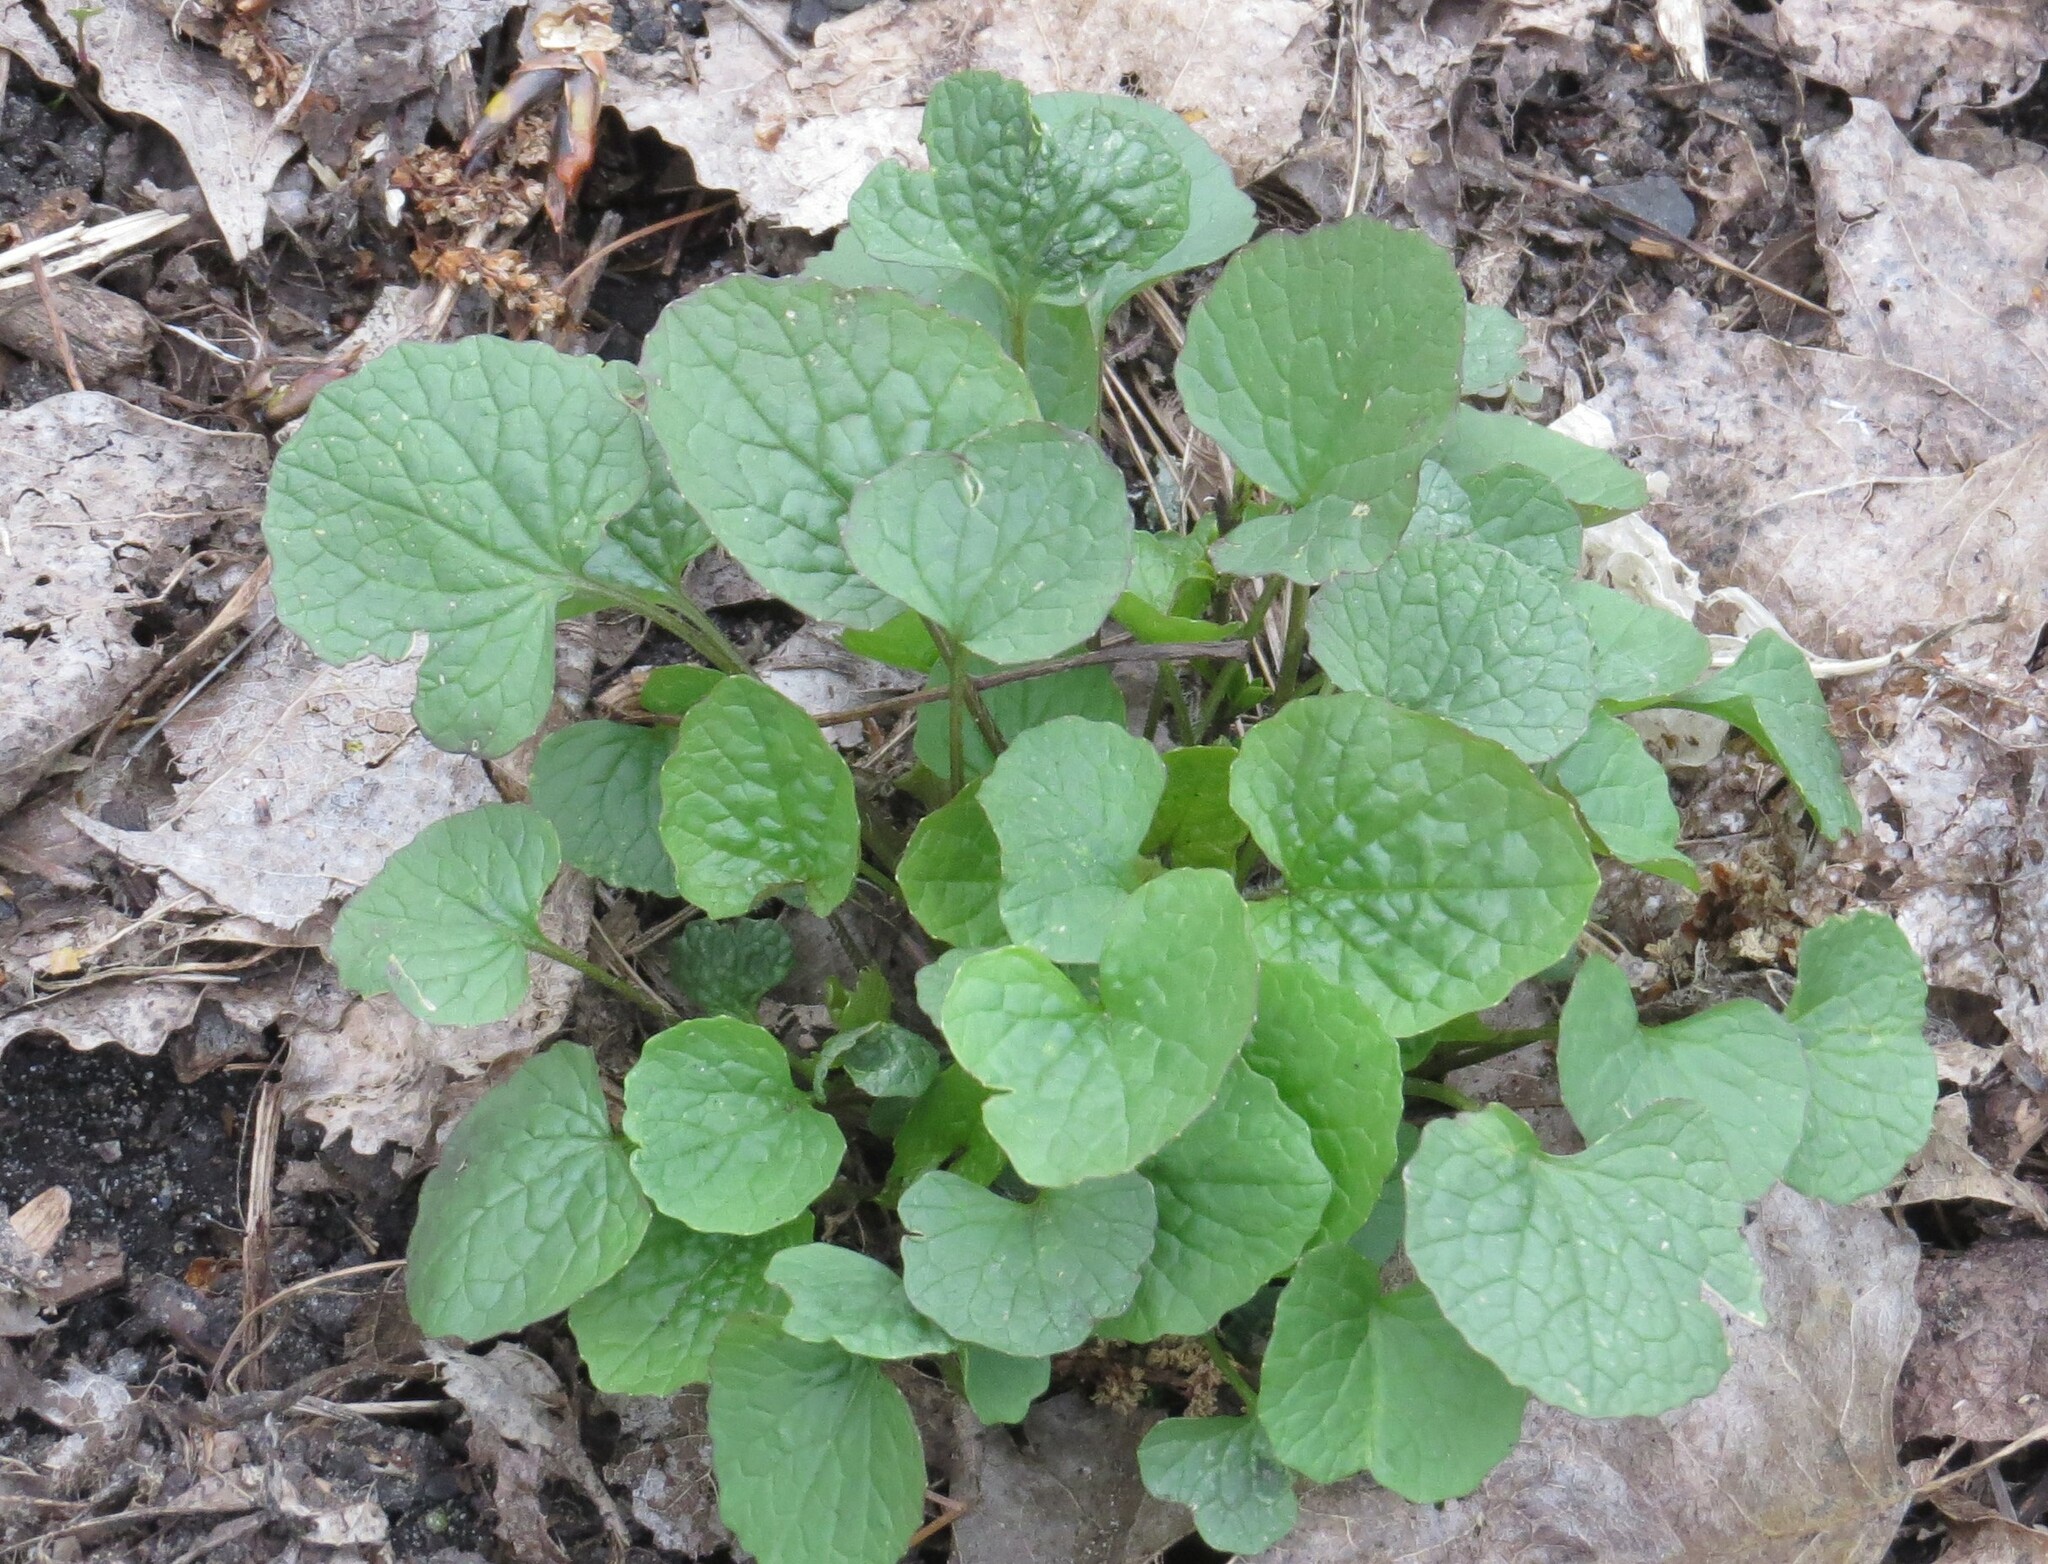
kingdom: Plantae
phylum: Tracheophyta
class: Magnoliopsida
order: Brassicales
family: Brassicaceae
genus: Alliaria
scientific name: Alliaria petiolata
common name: Garlic mustard
